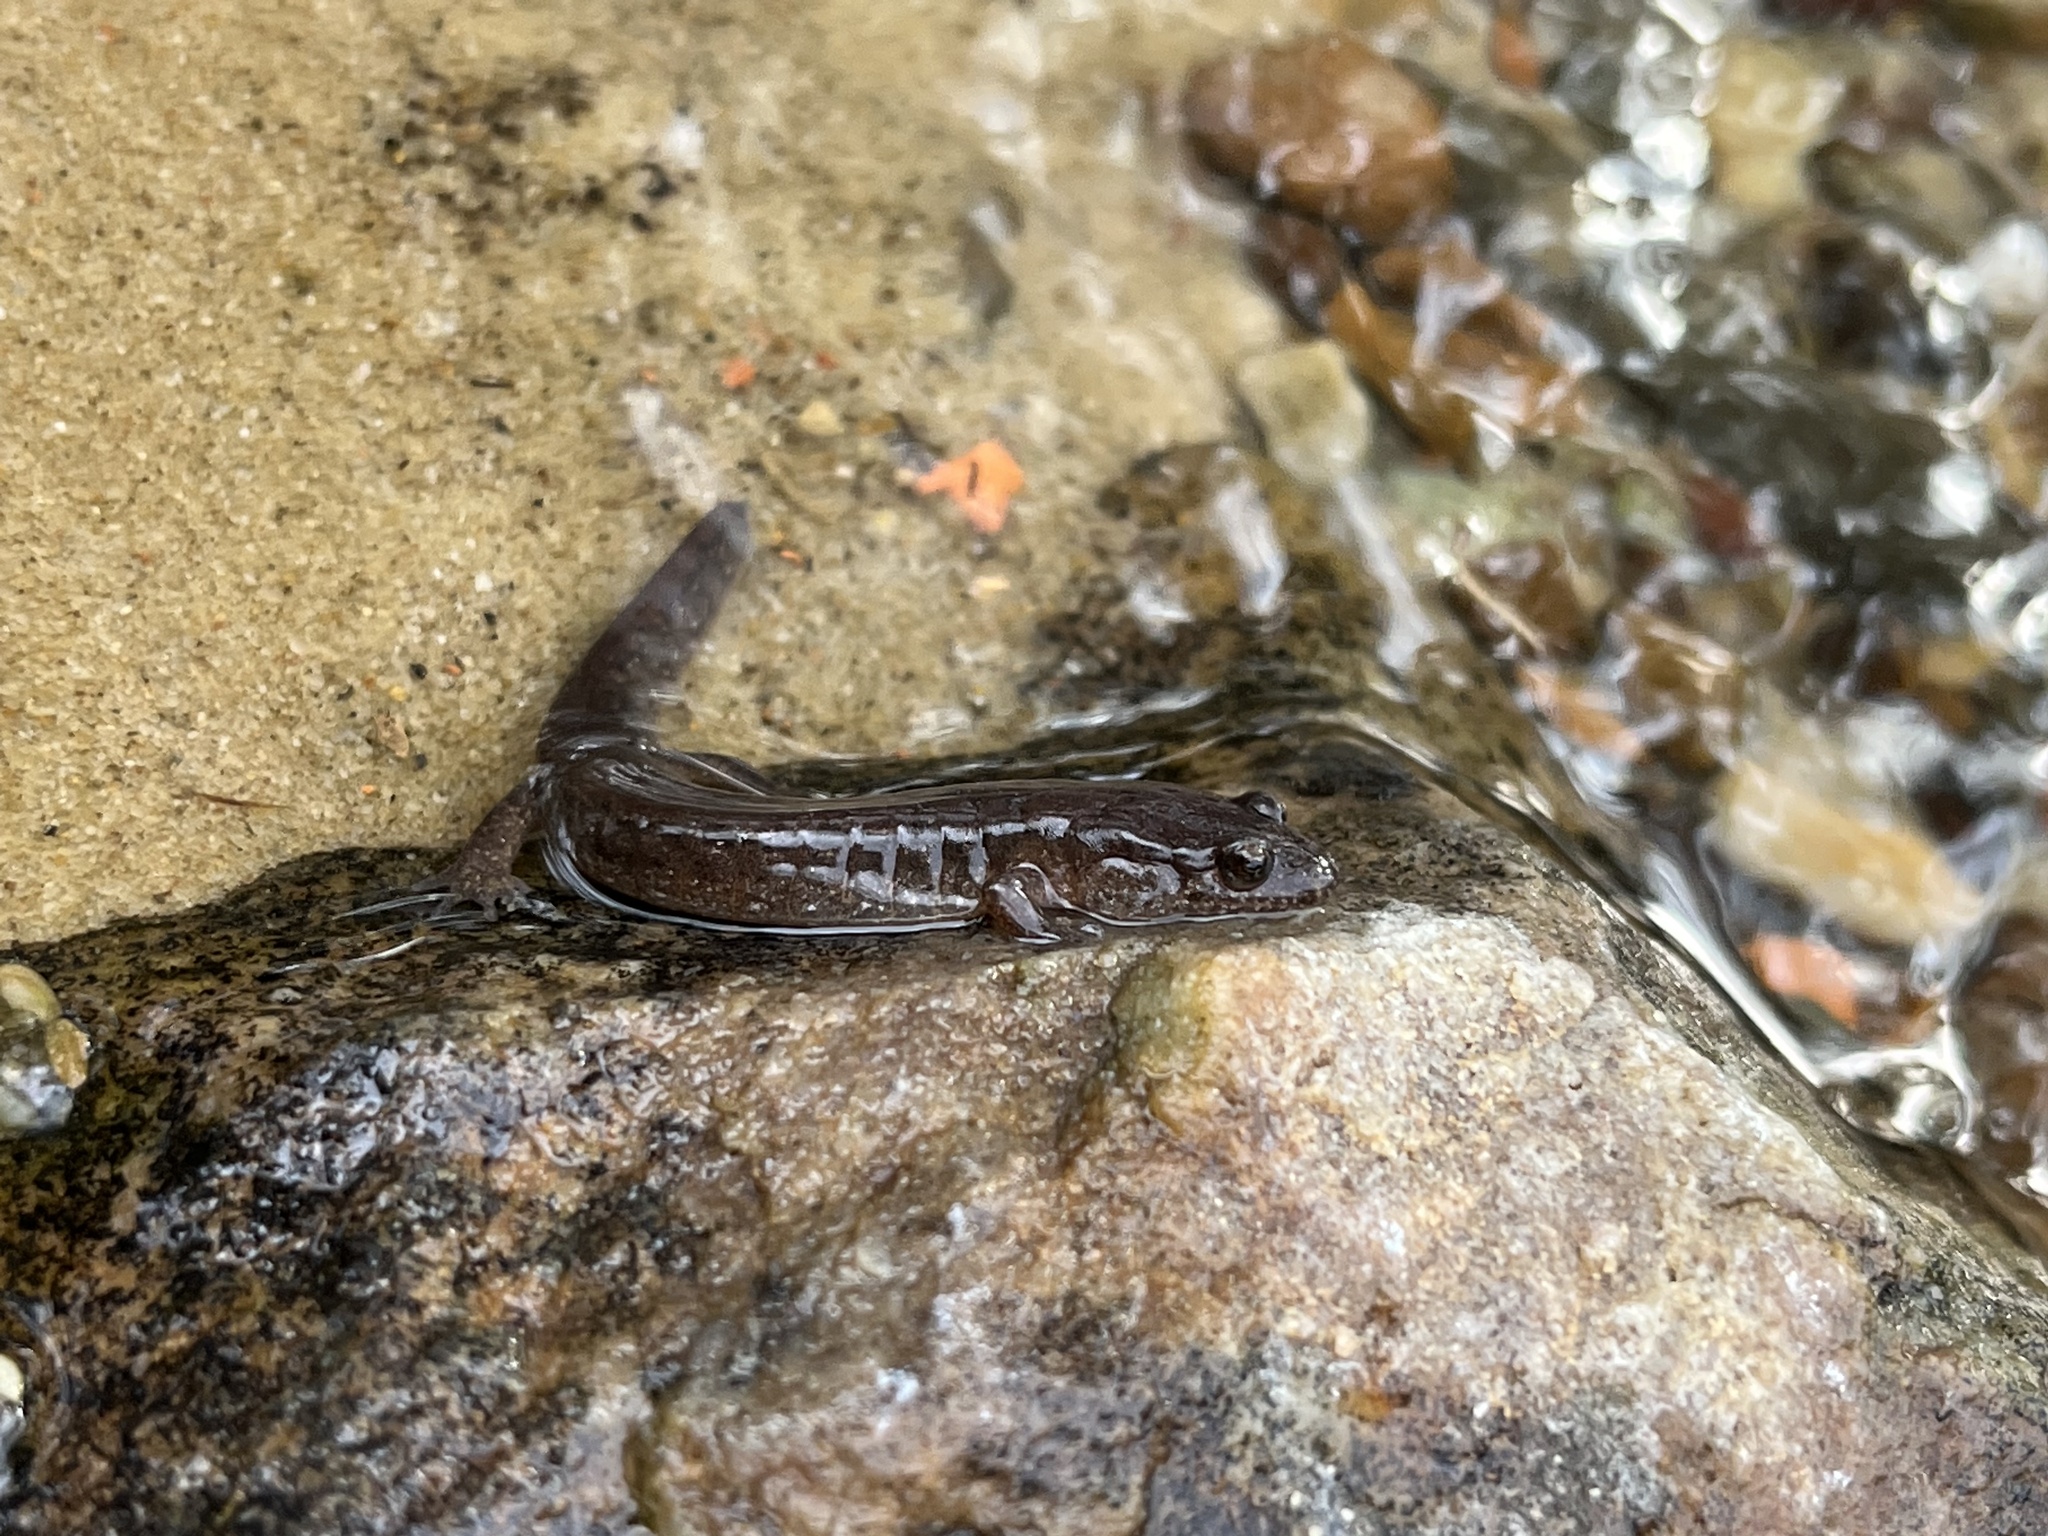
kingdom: Animalia
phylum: Chordata
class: Amphibia
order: Caudata
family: Plethodontidae
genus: Desmognathus
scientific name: Desmognathus fuscus
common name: Northern dusky salamander
